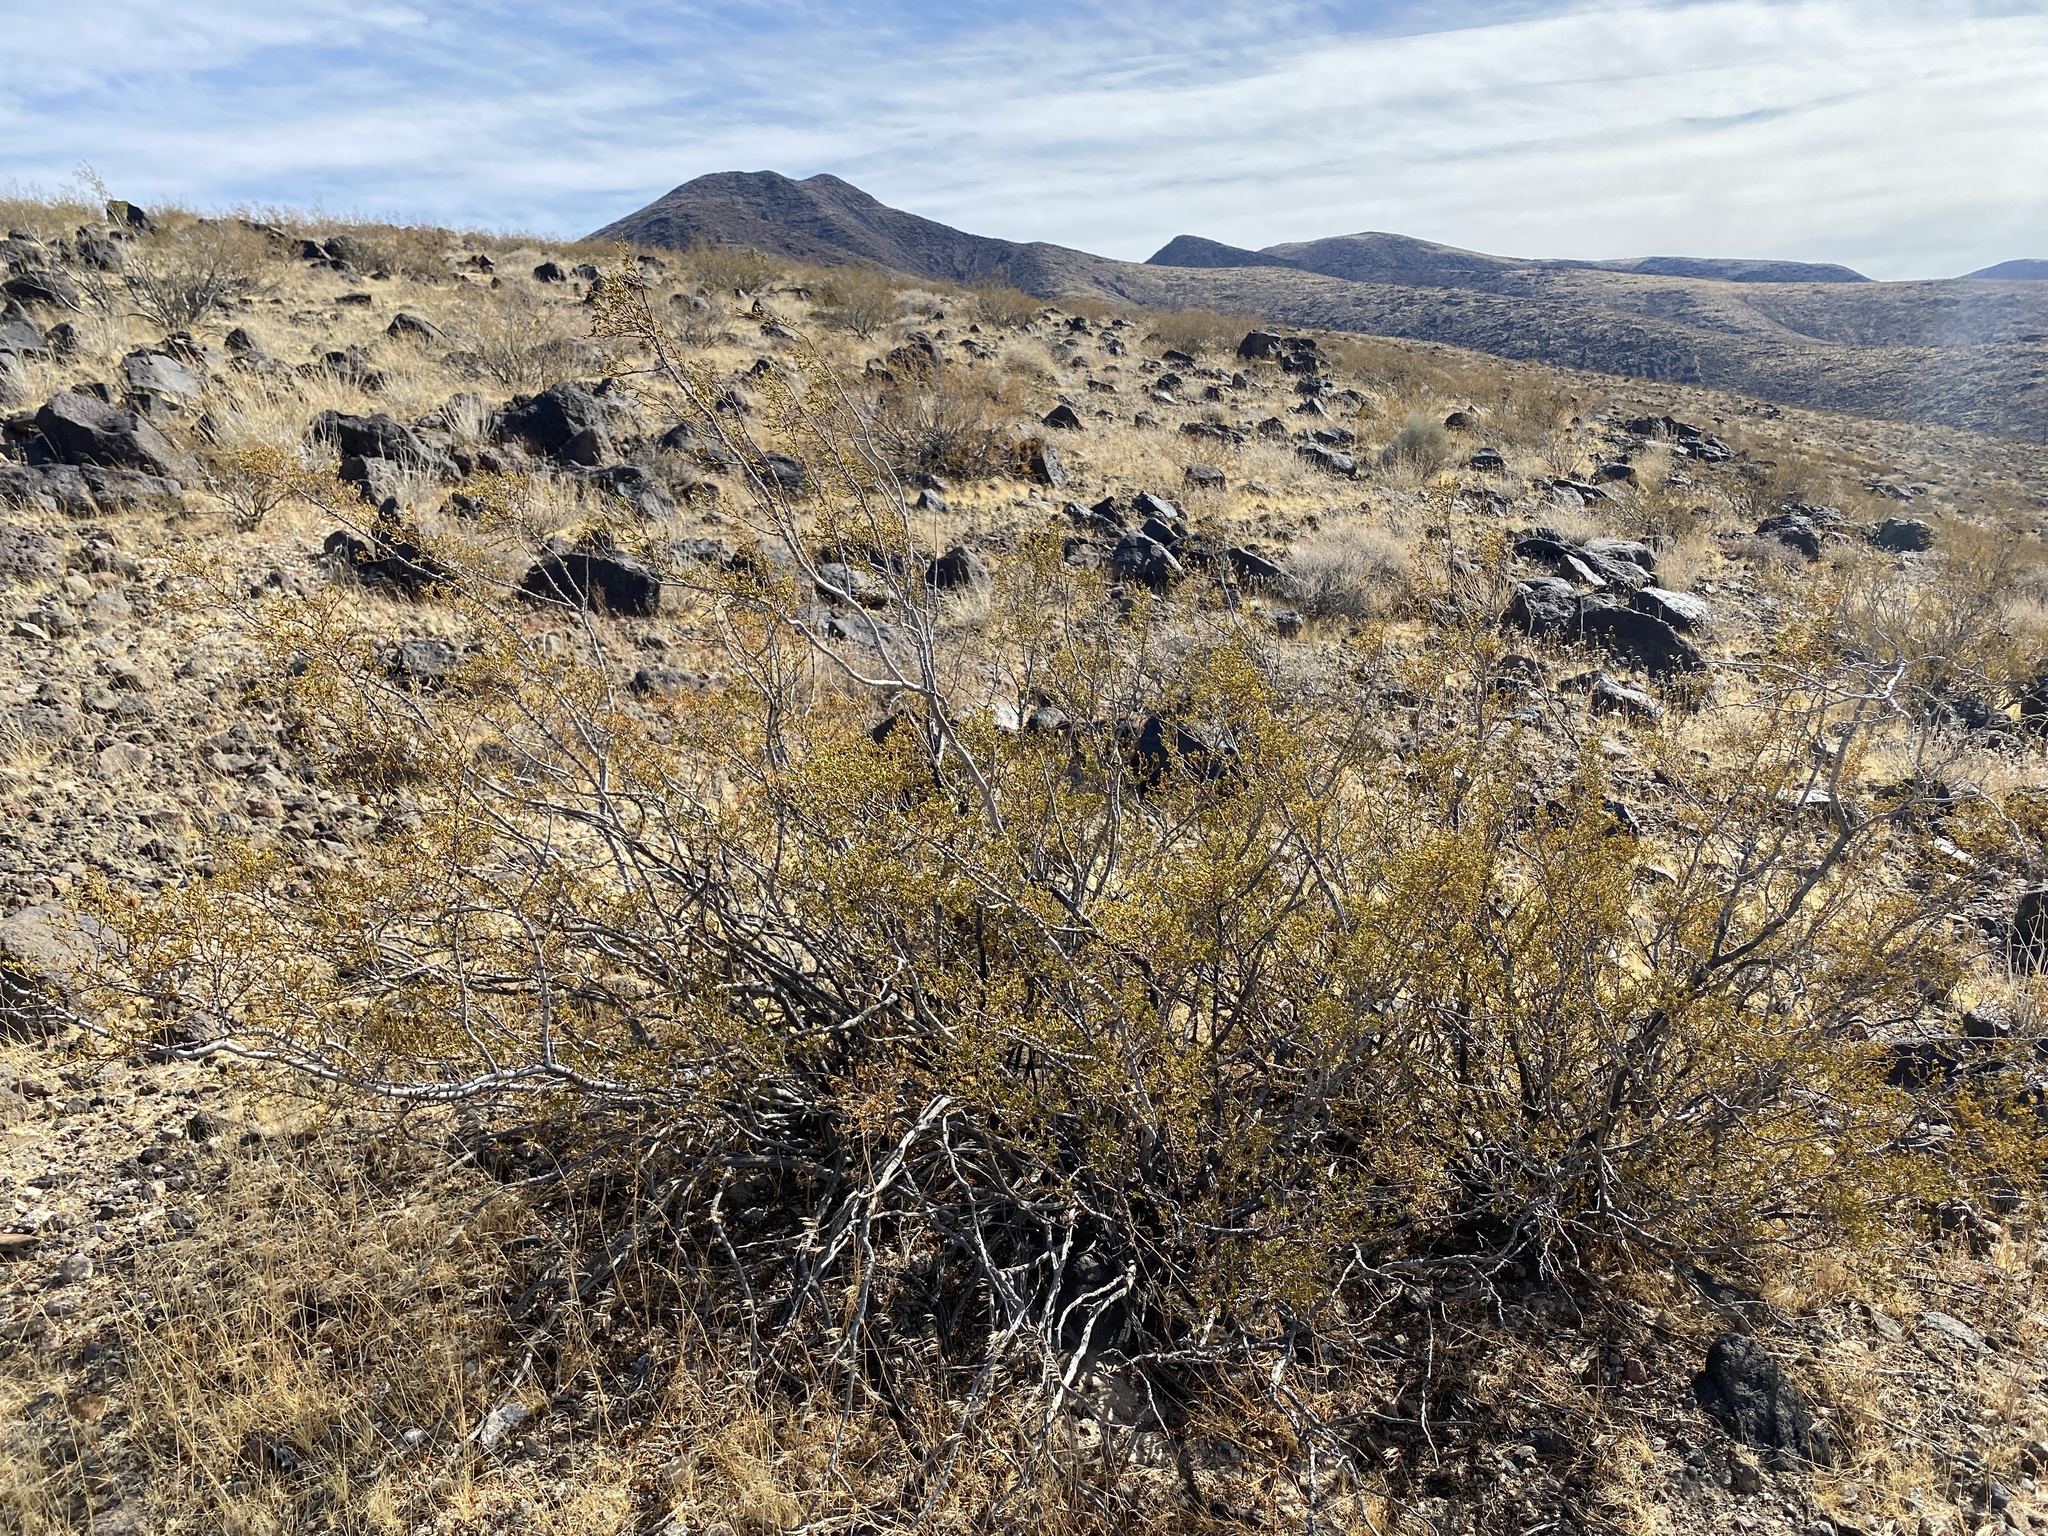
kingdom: Plantae
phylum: Tracheophyta
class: Magnoliopsida
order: Zygophyllales
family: Zygophyllaceae
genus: Larrea
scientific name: Larrea tridentata
